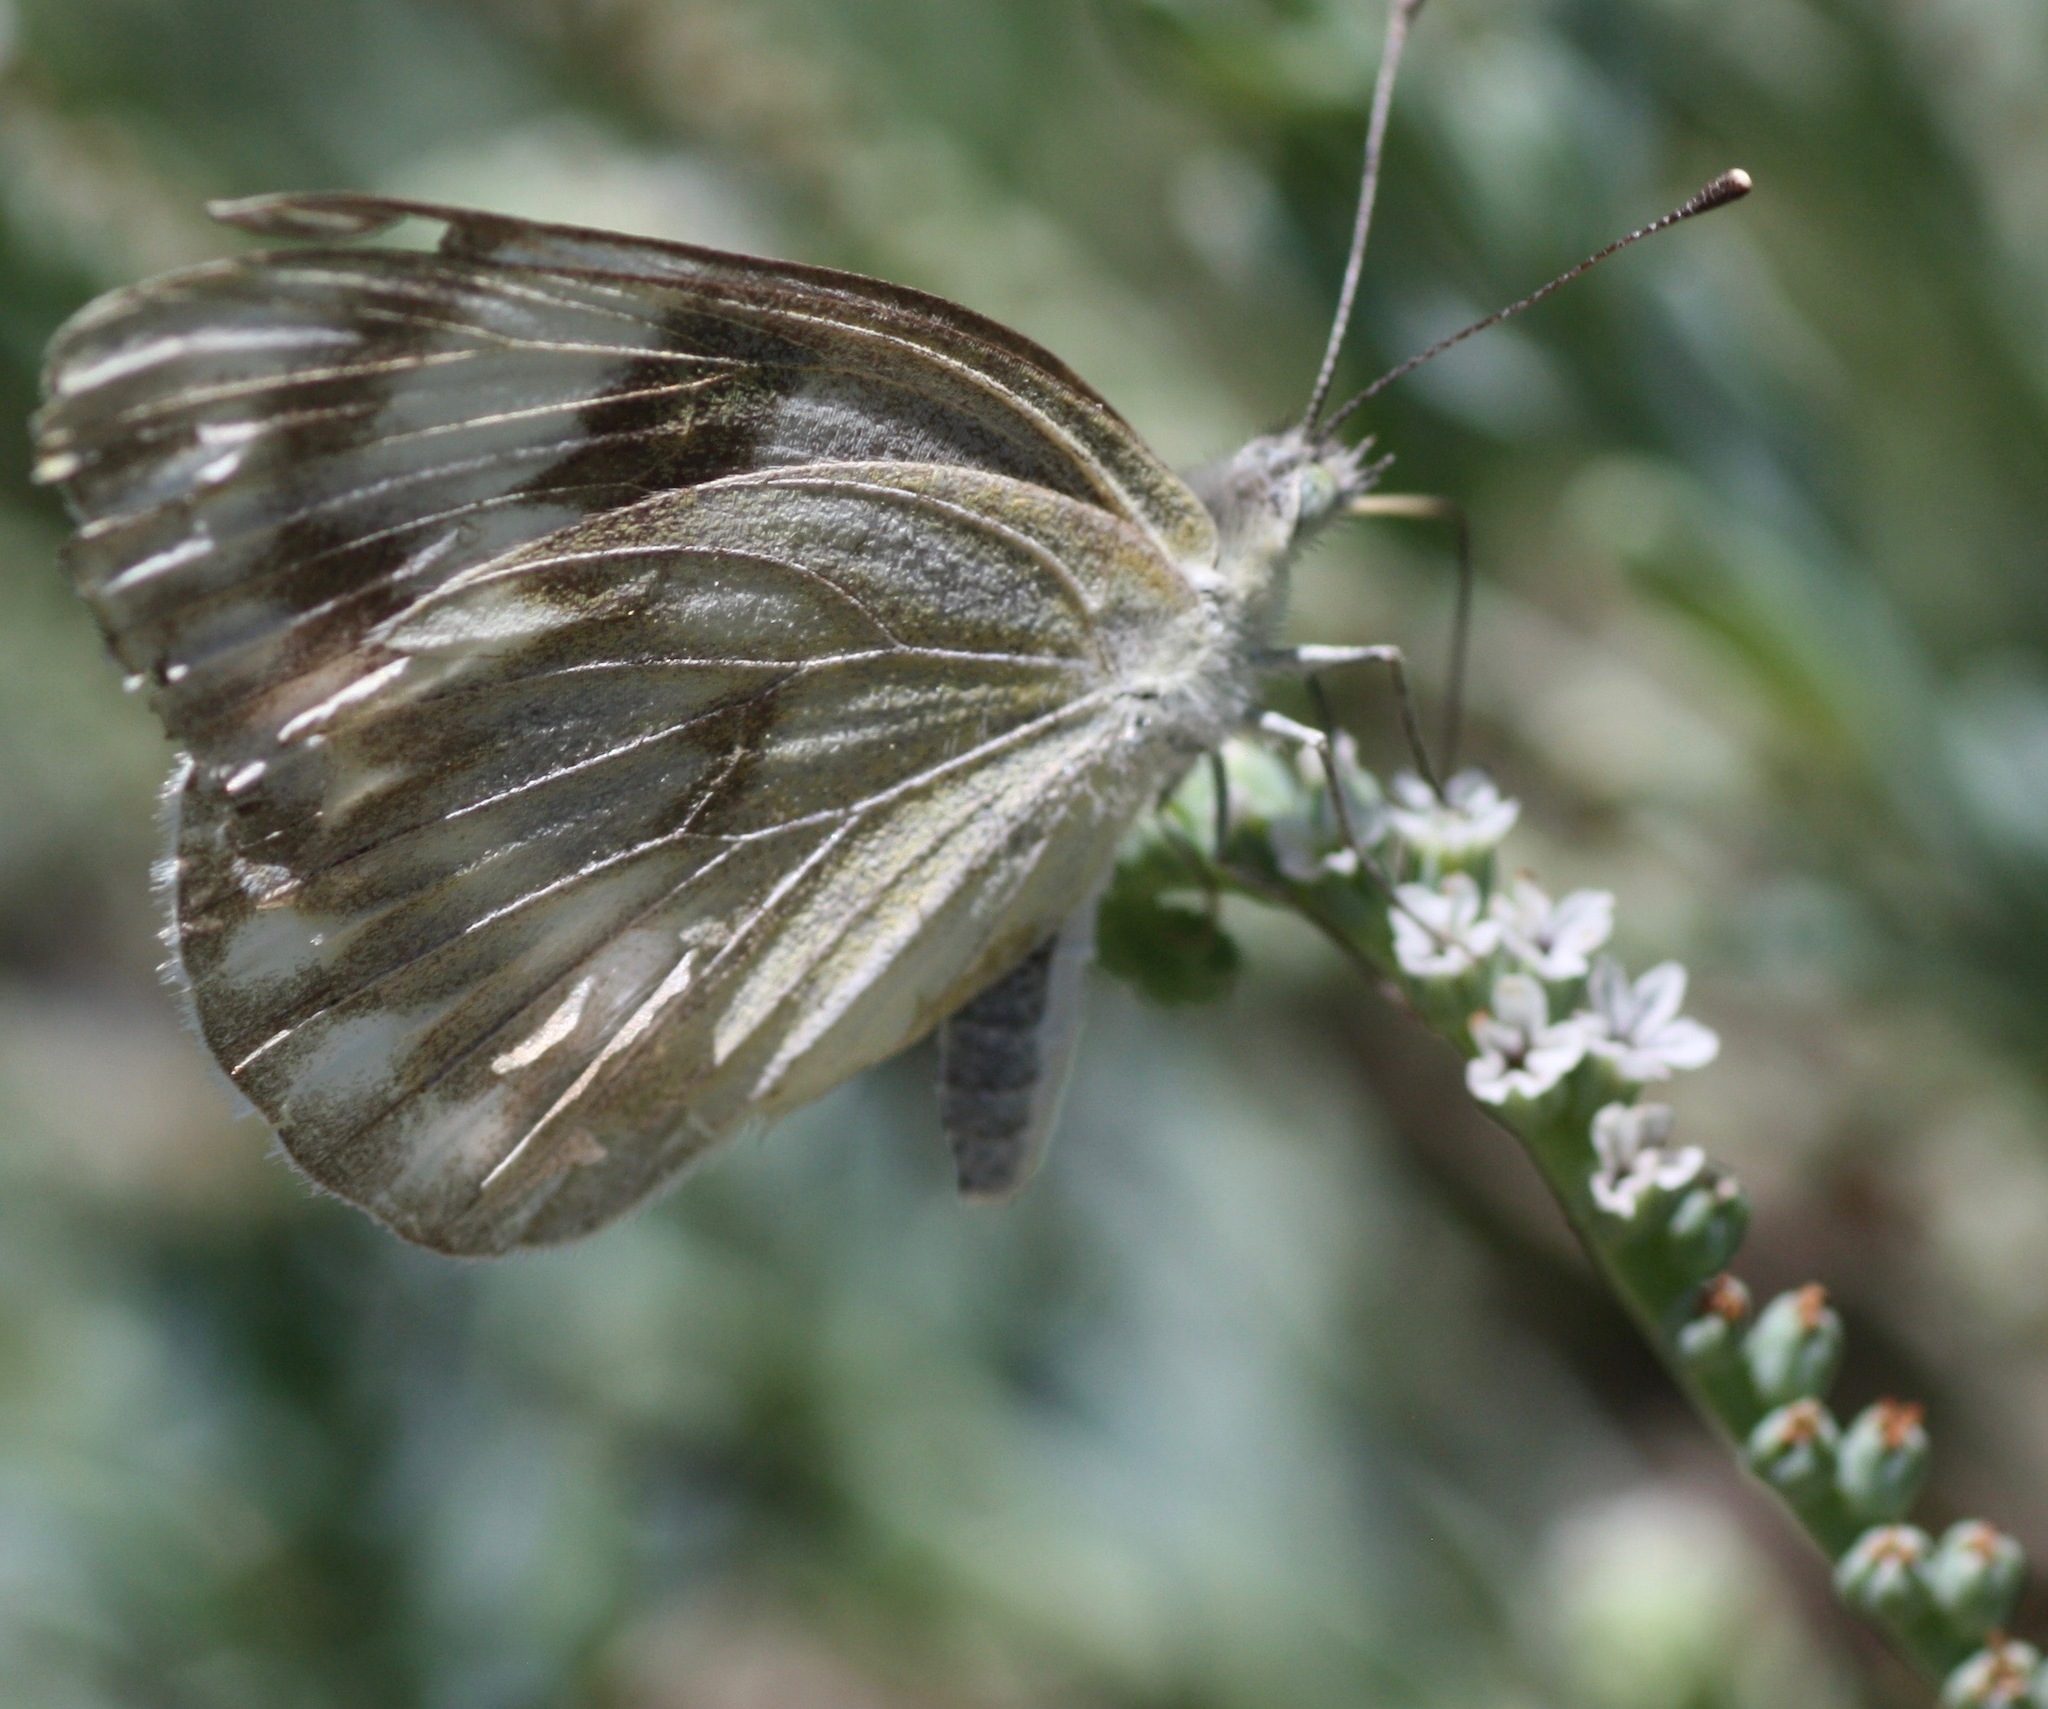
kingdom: Animalia
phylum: Arthropoda
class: Insecta
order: Lepidoptera
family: Pieridae
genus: Pontia
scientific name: Pontia protodice
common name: Checkered white
